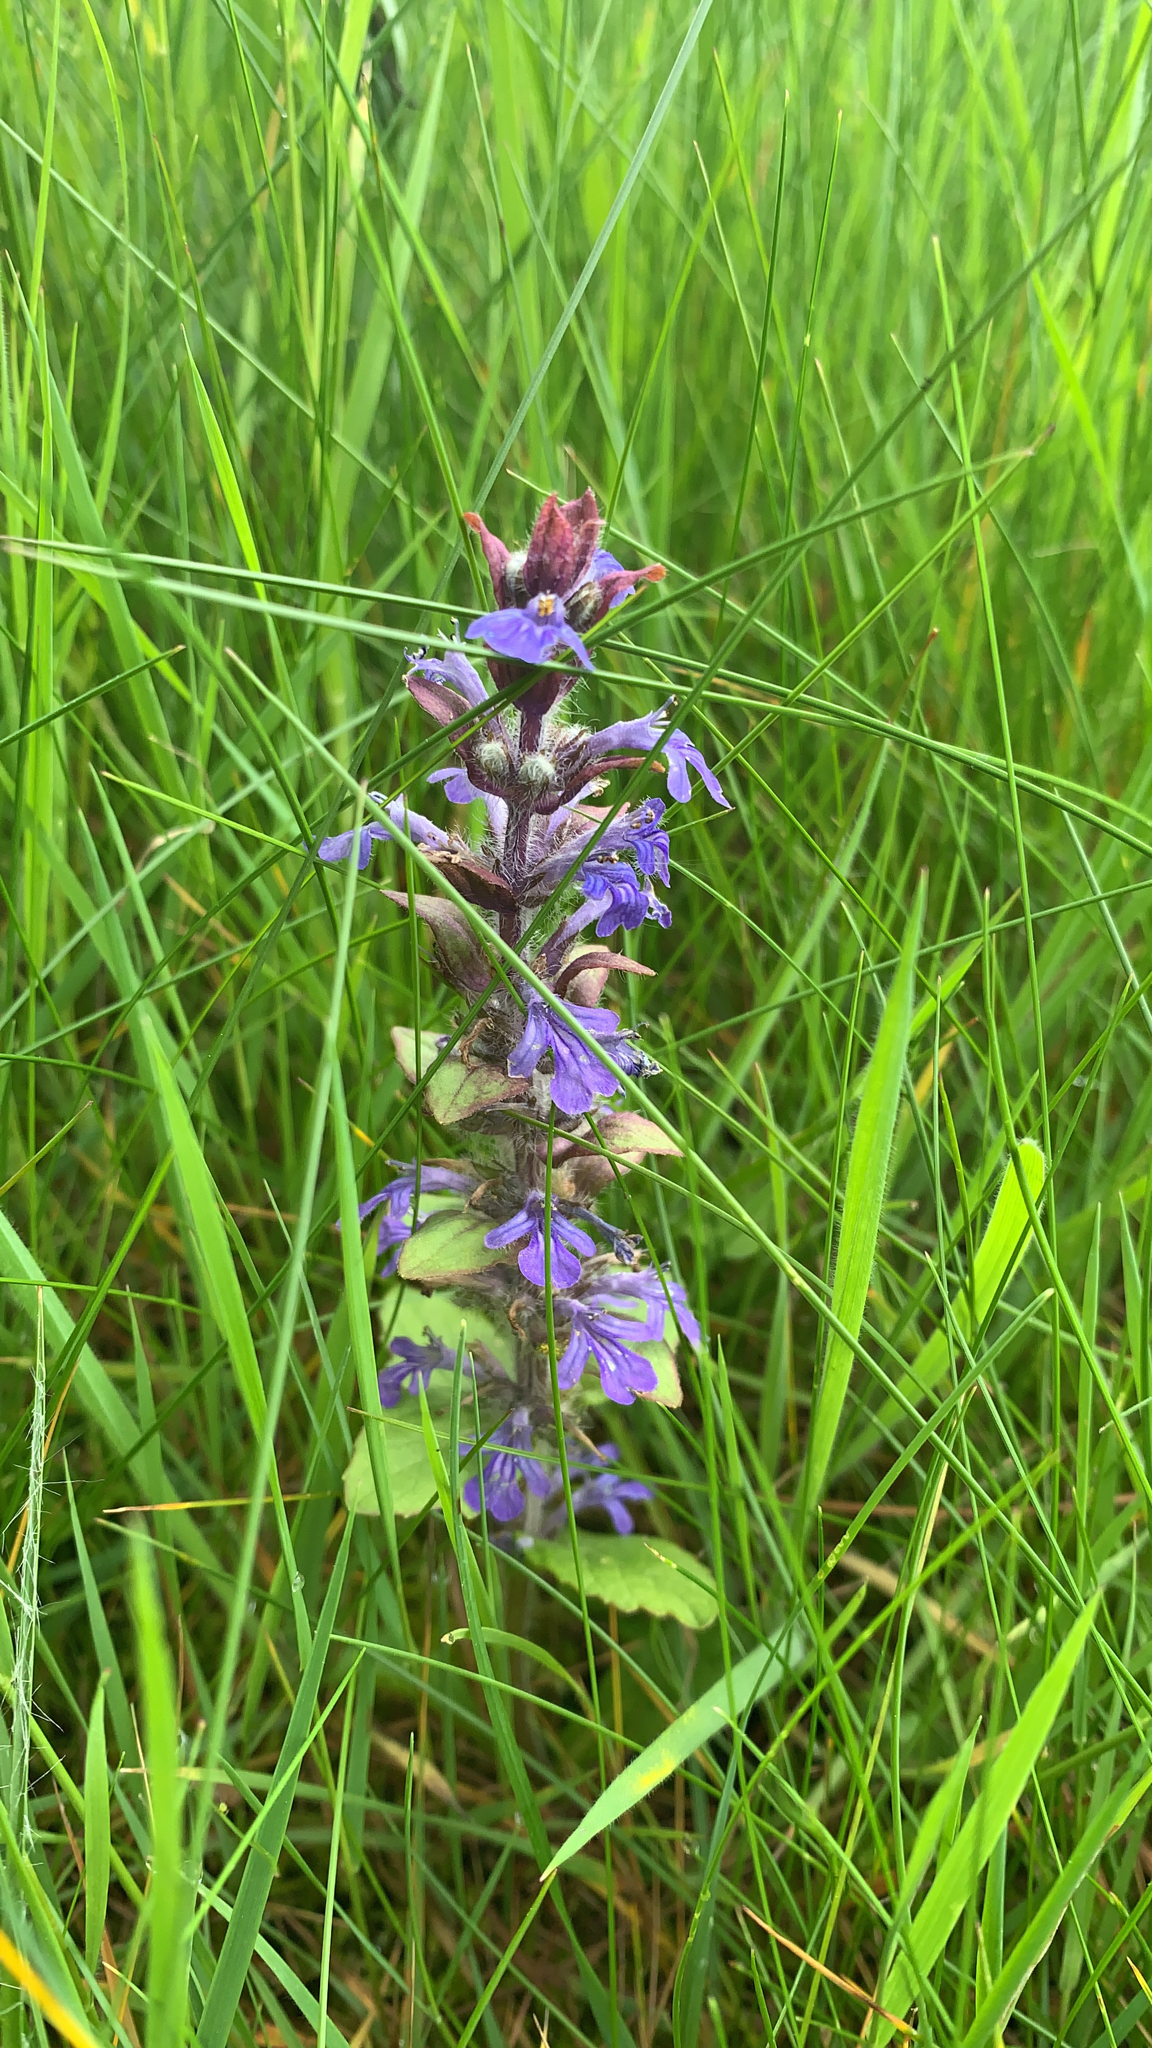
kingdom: Plantae
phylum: Tracheophyta
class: Magnoliopsida
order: Lamiales
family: Lamiaceae
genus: Ajuga
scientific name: Ajuga reptans
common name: Bugle
